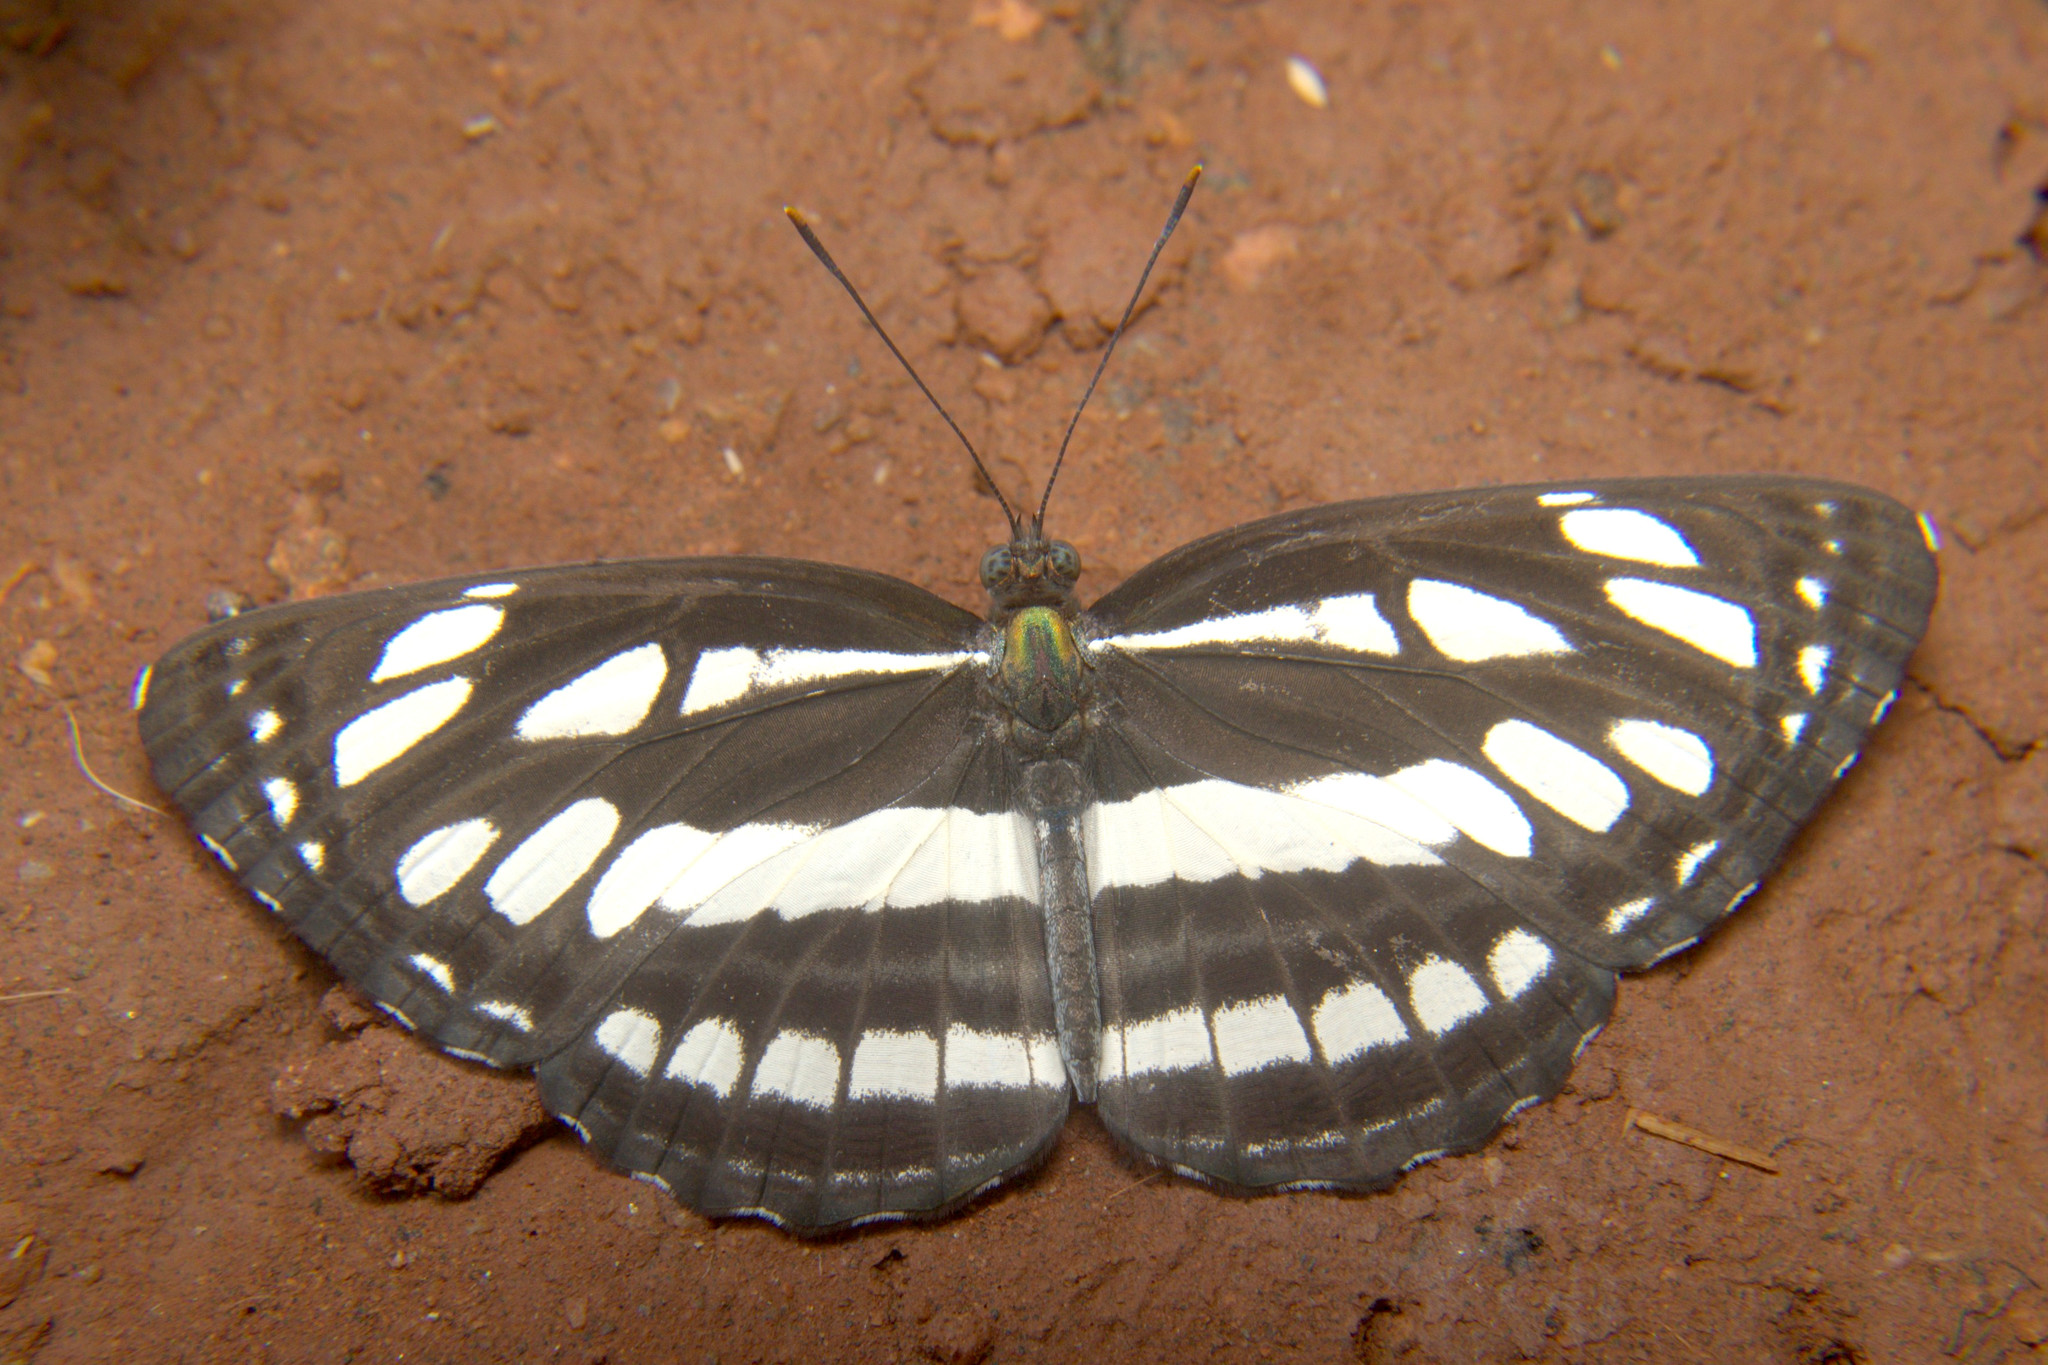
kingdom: Animalia
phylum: Arthropoda
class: Insecta
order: Lepidoptera
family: Nymphalidae
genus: Neptis
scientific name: Neptis hylas
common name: Common sailer
